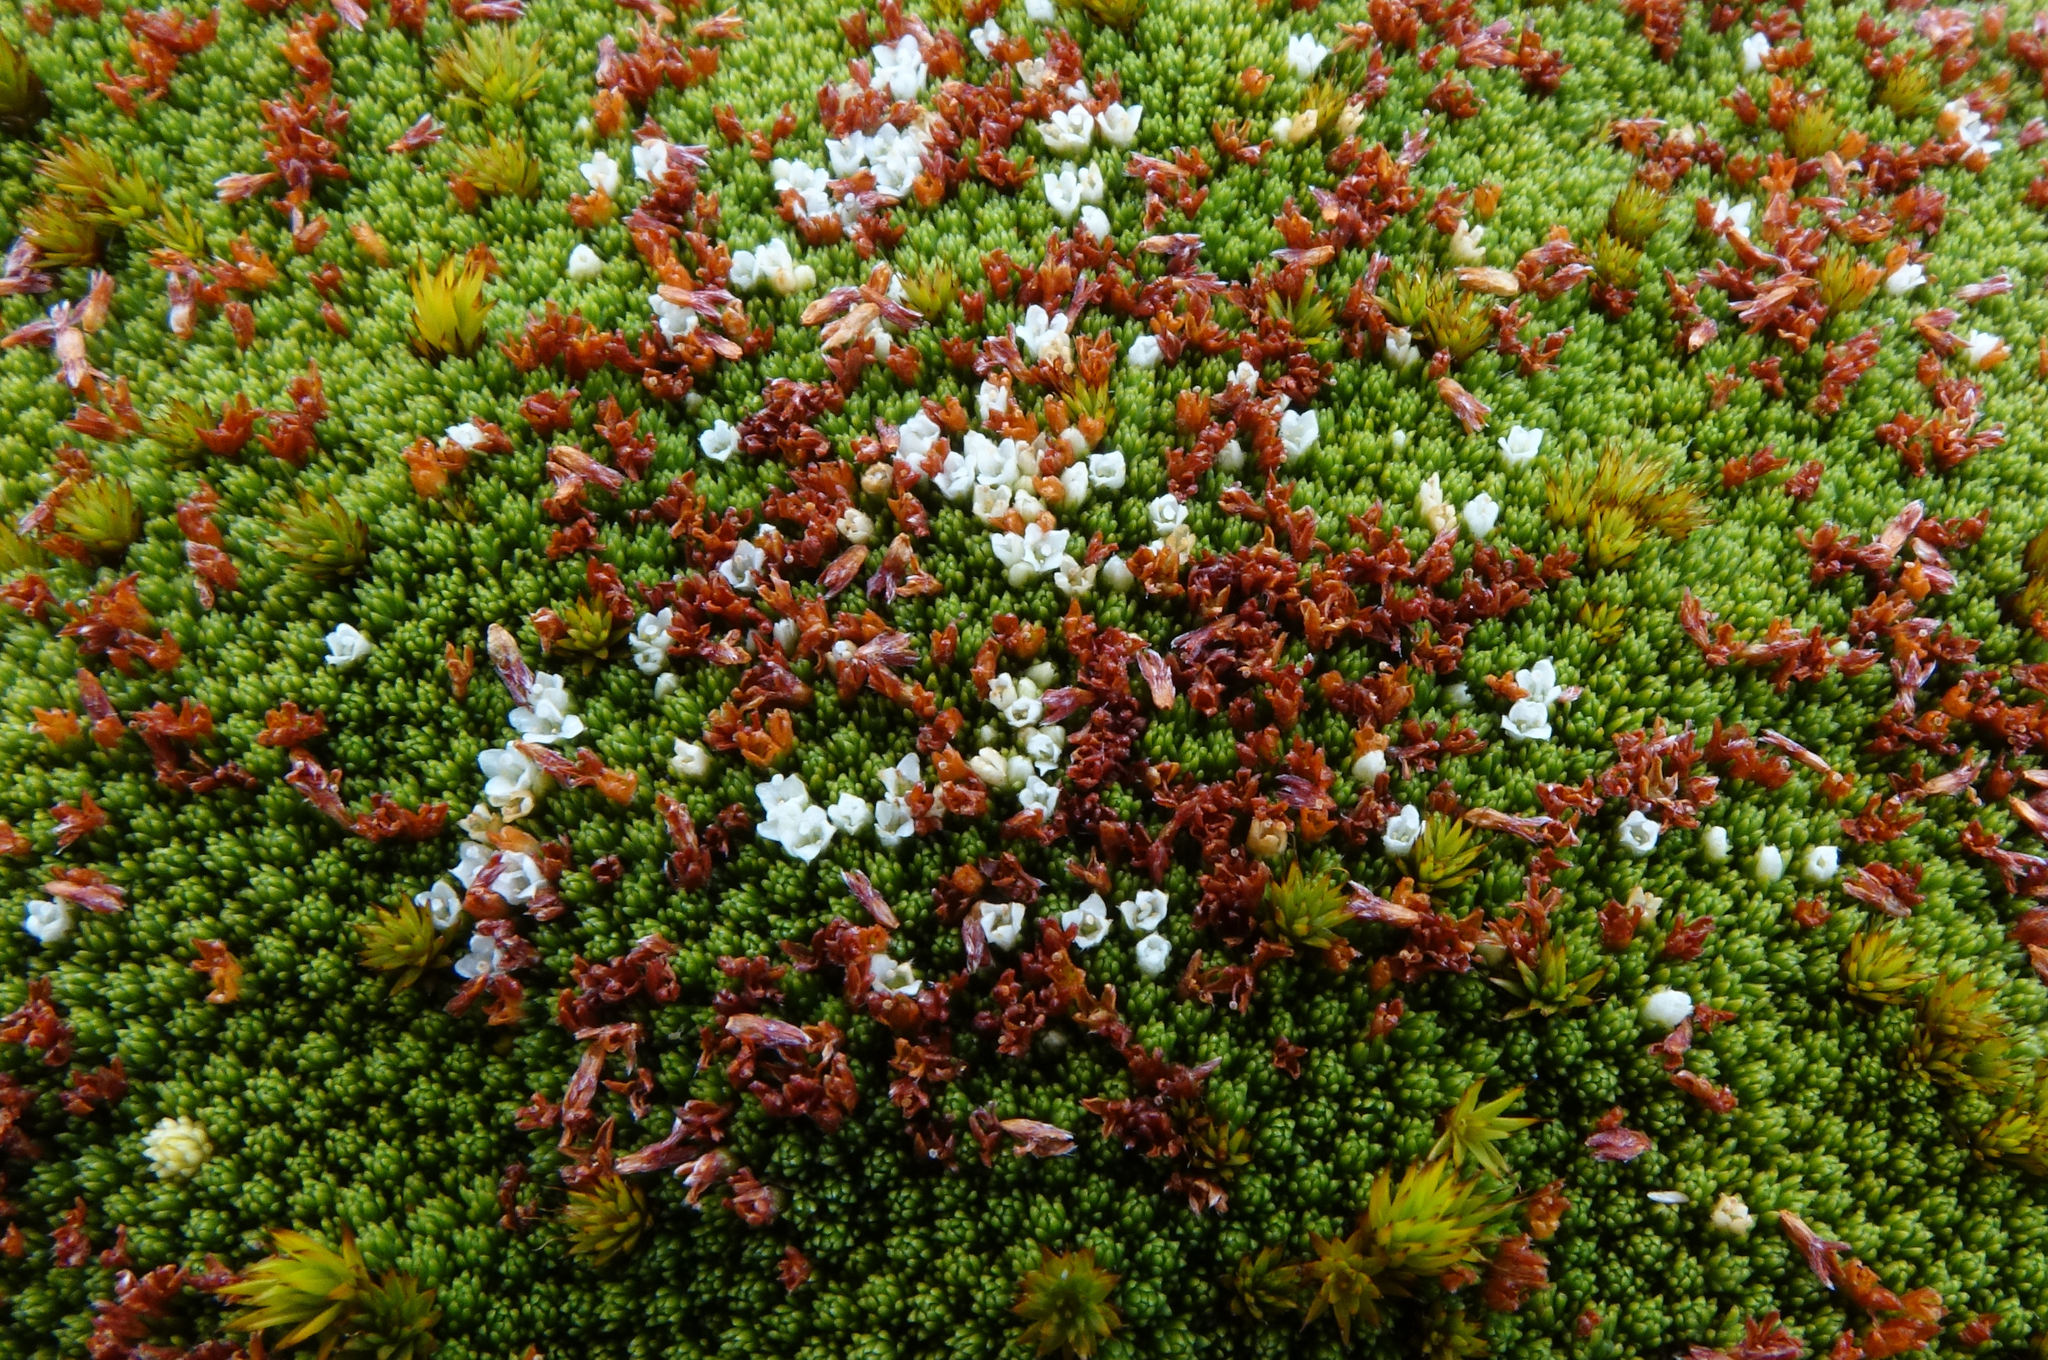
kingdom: Plantae
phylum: Tracheophyta
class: Magnoliopsida
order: Malvales
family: Thymelaeaceae
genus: Kelleria
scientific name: Kelleria childii
